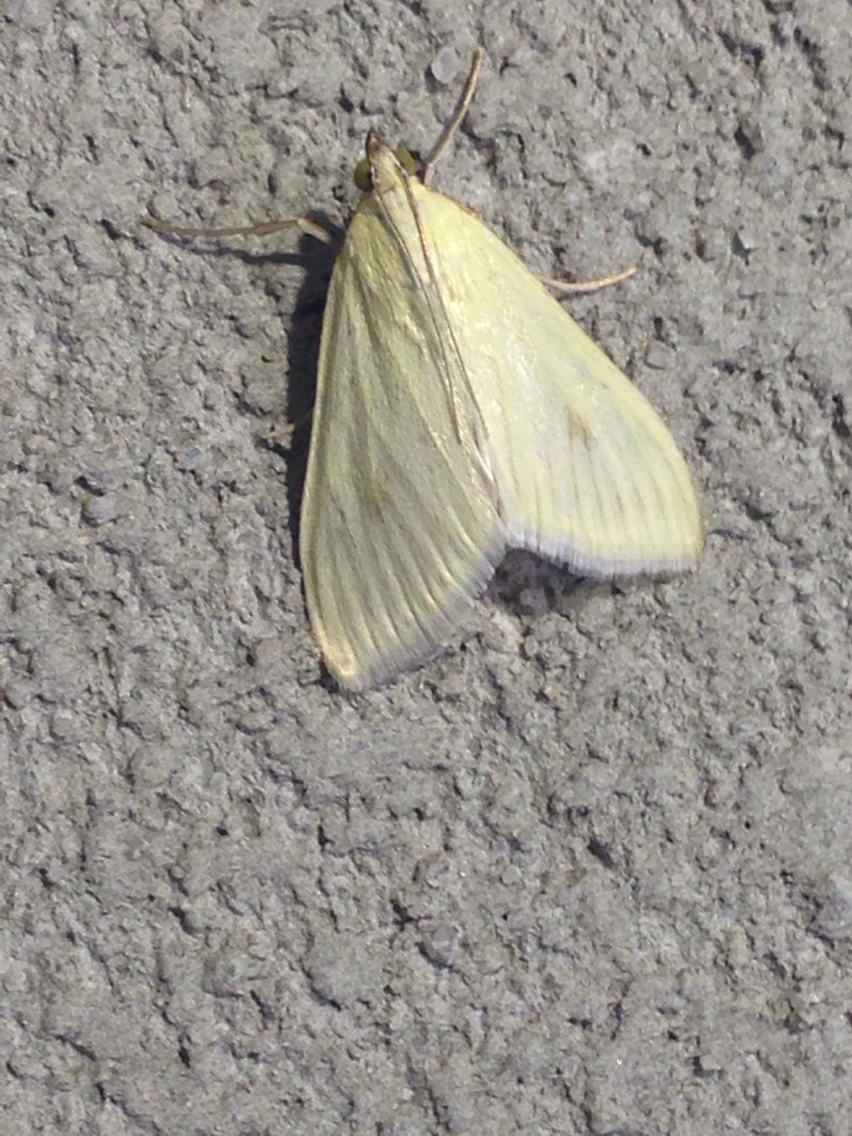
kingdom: Animalia
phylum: Arthropoda
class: Insecta
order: Lepidoptera
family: Crambidae
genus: Sitochroa
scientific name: Sitochroa palealis
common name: Greenish-yellow sitochroa moth
